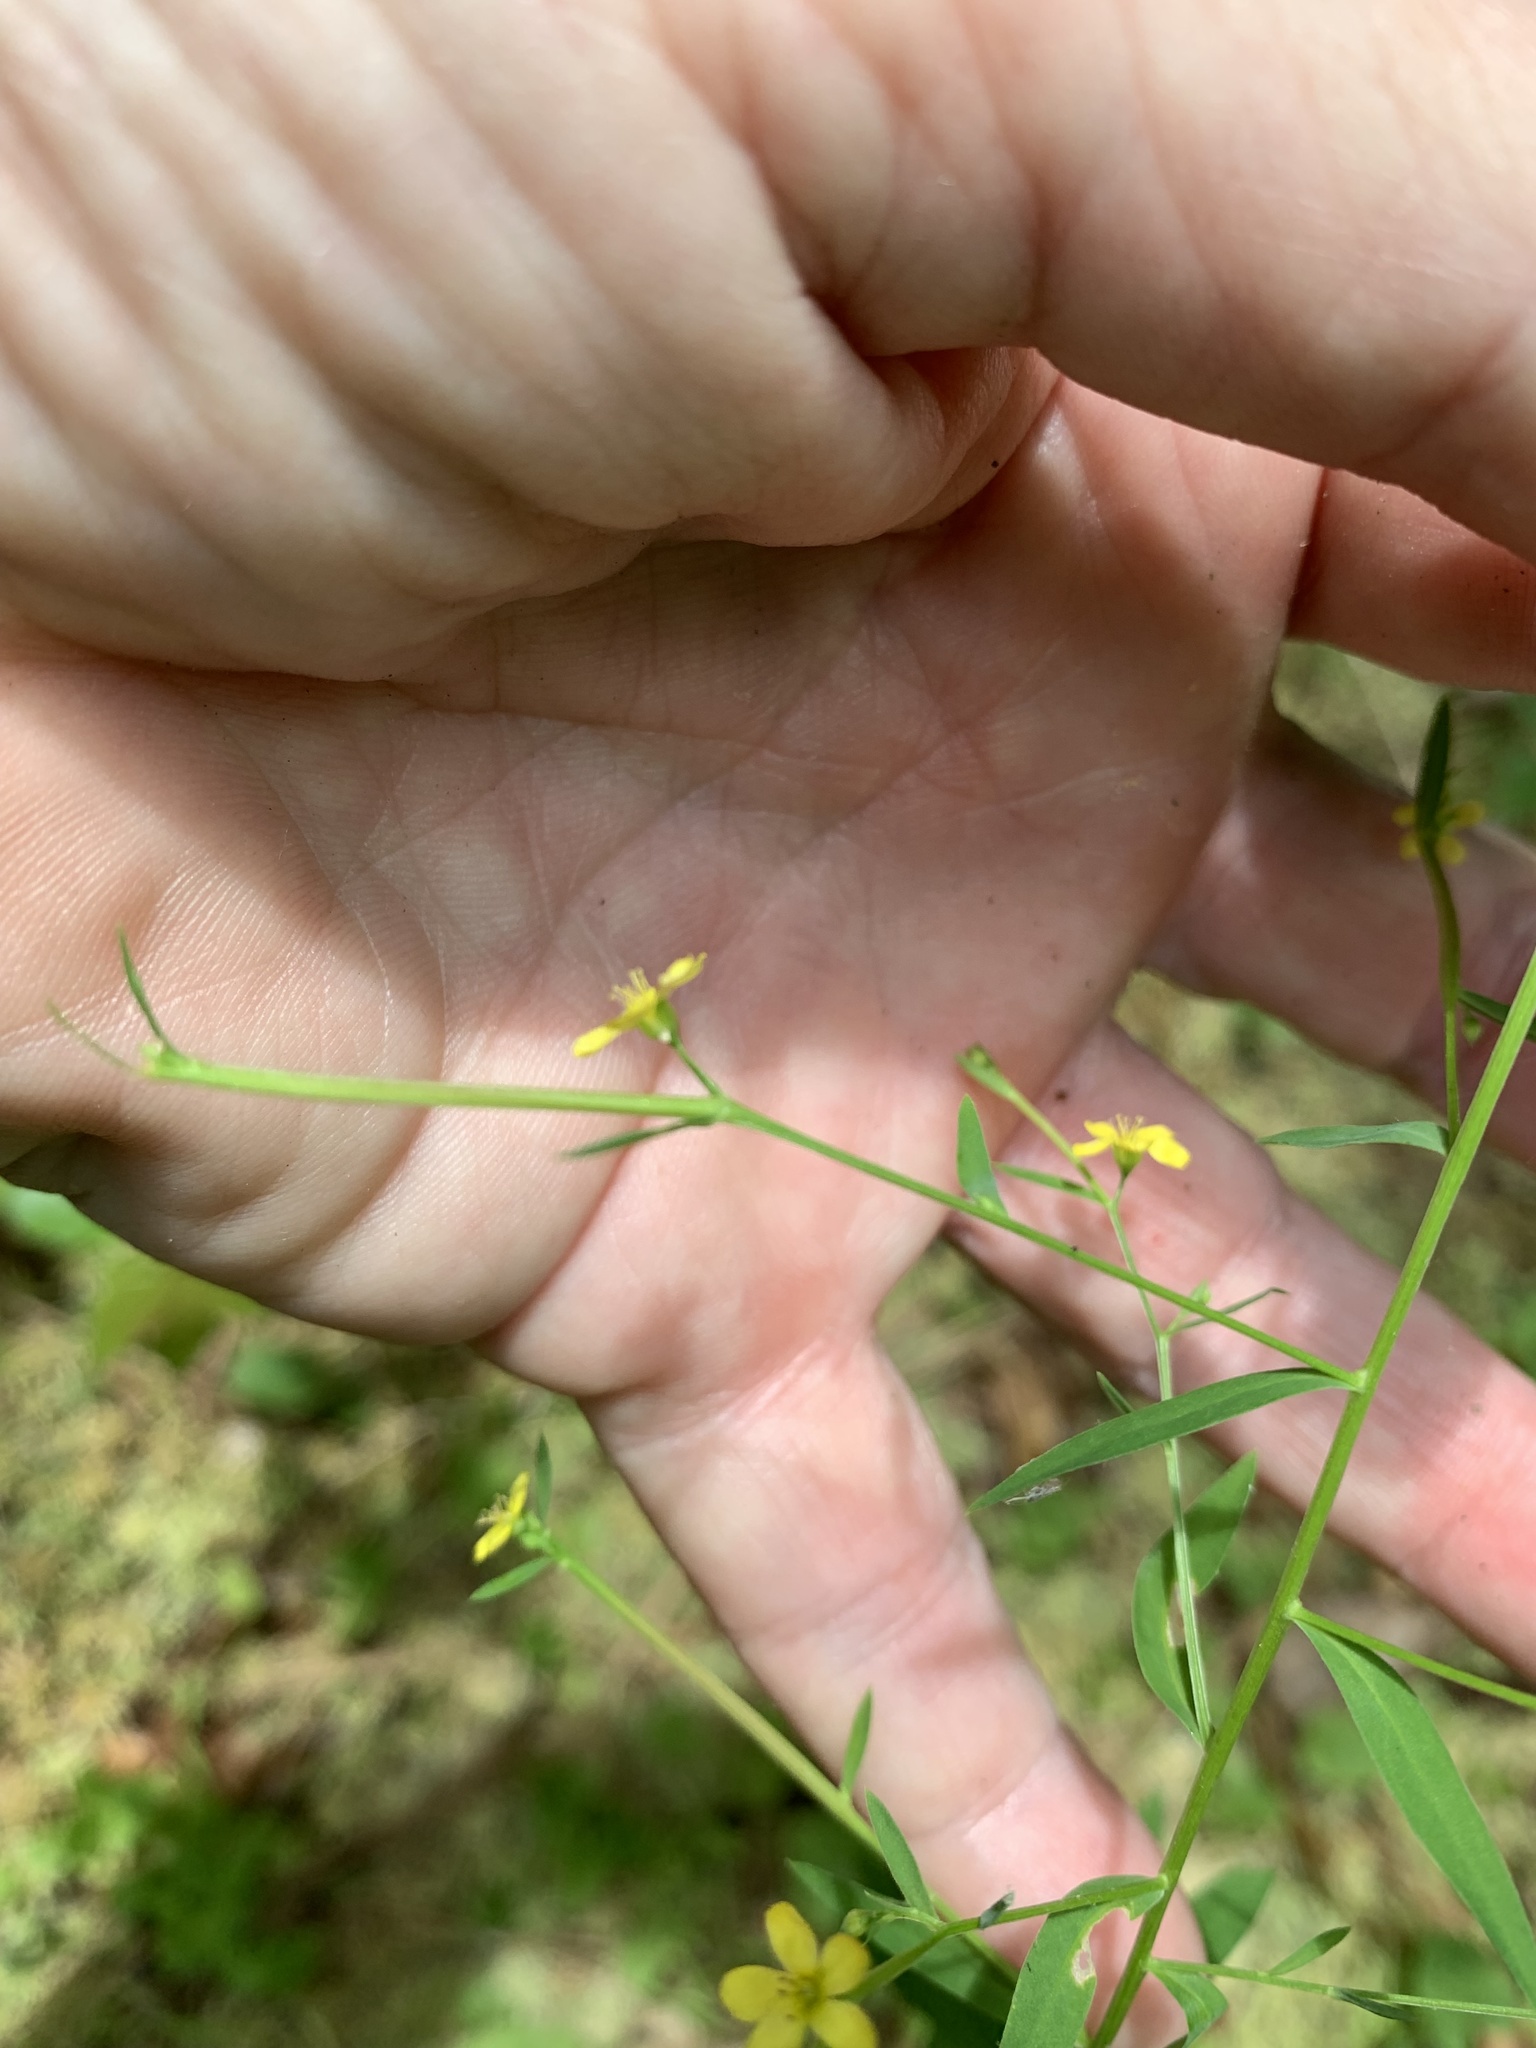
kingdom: Plantae
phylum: Tracheophyta
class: Magnoliopsida
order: Malpighiales
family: Linaceae
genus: Linum
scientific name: Linum striatum
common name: Ridged yellow flax
